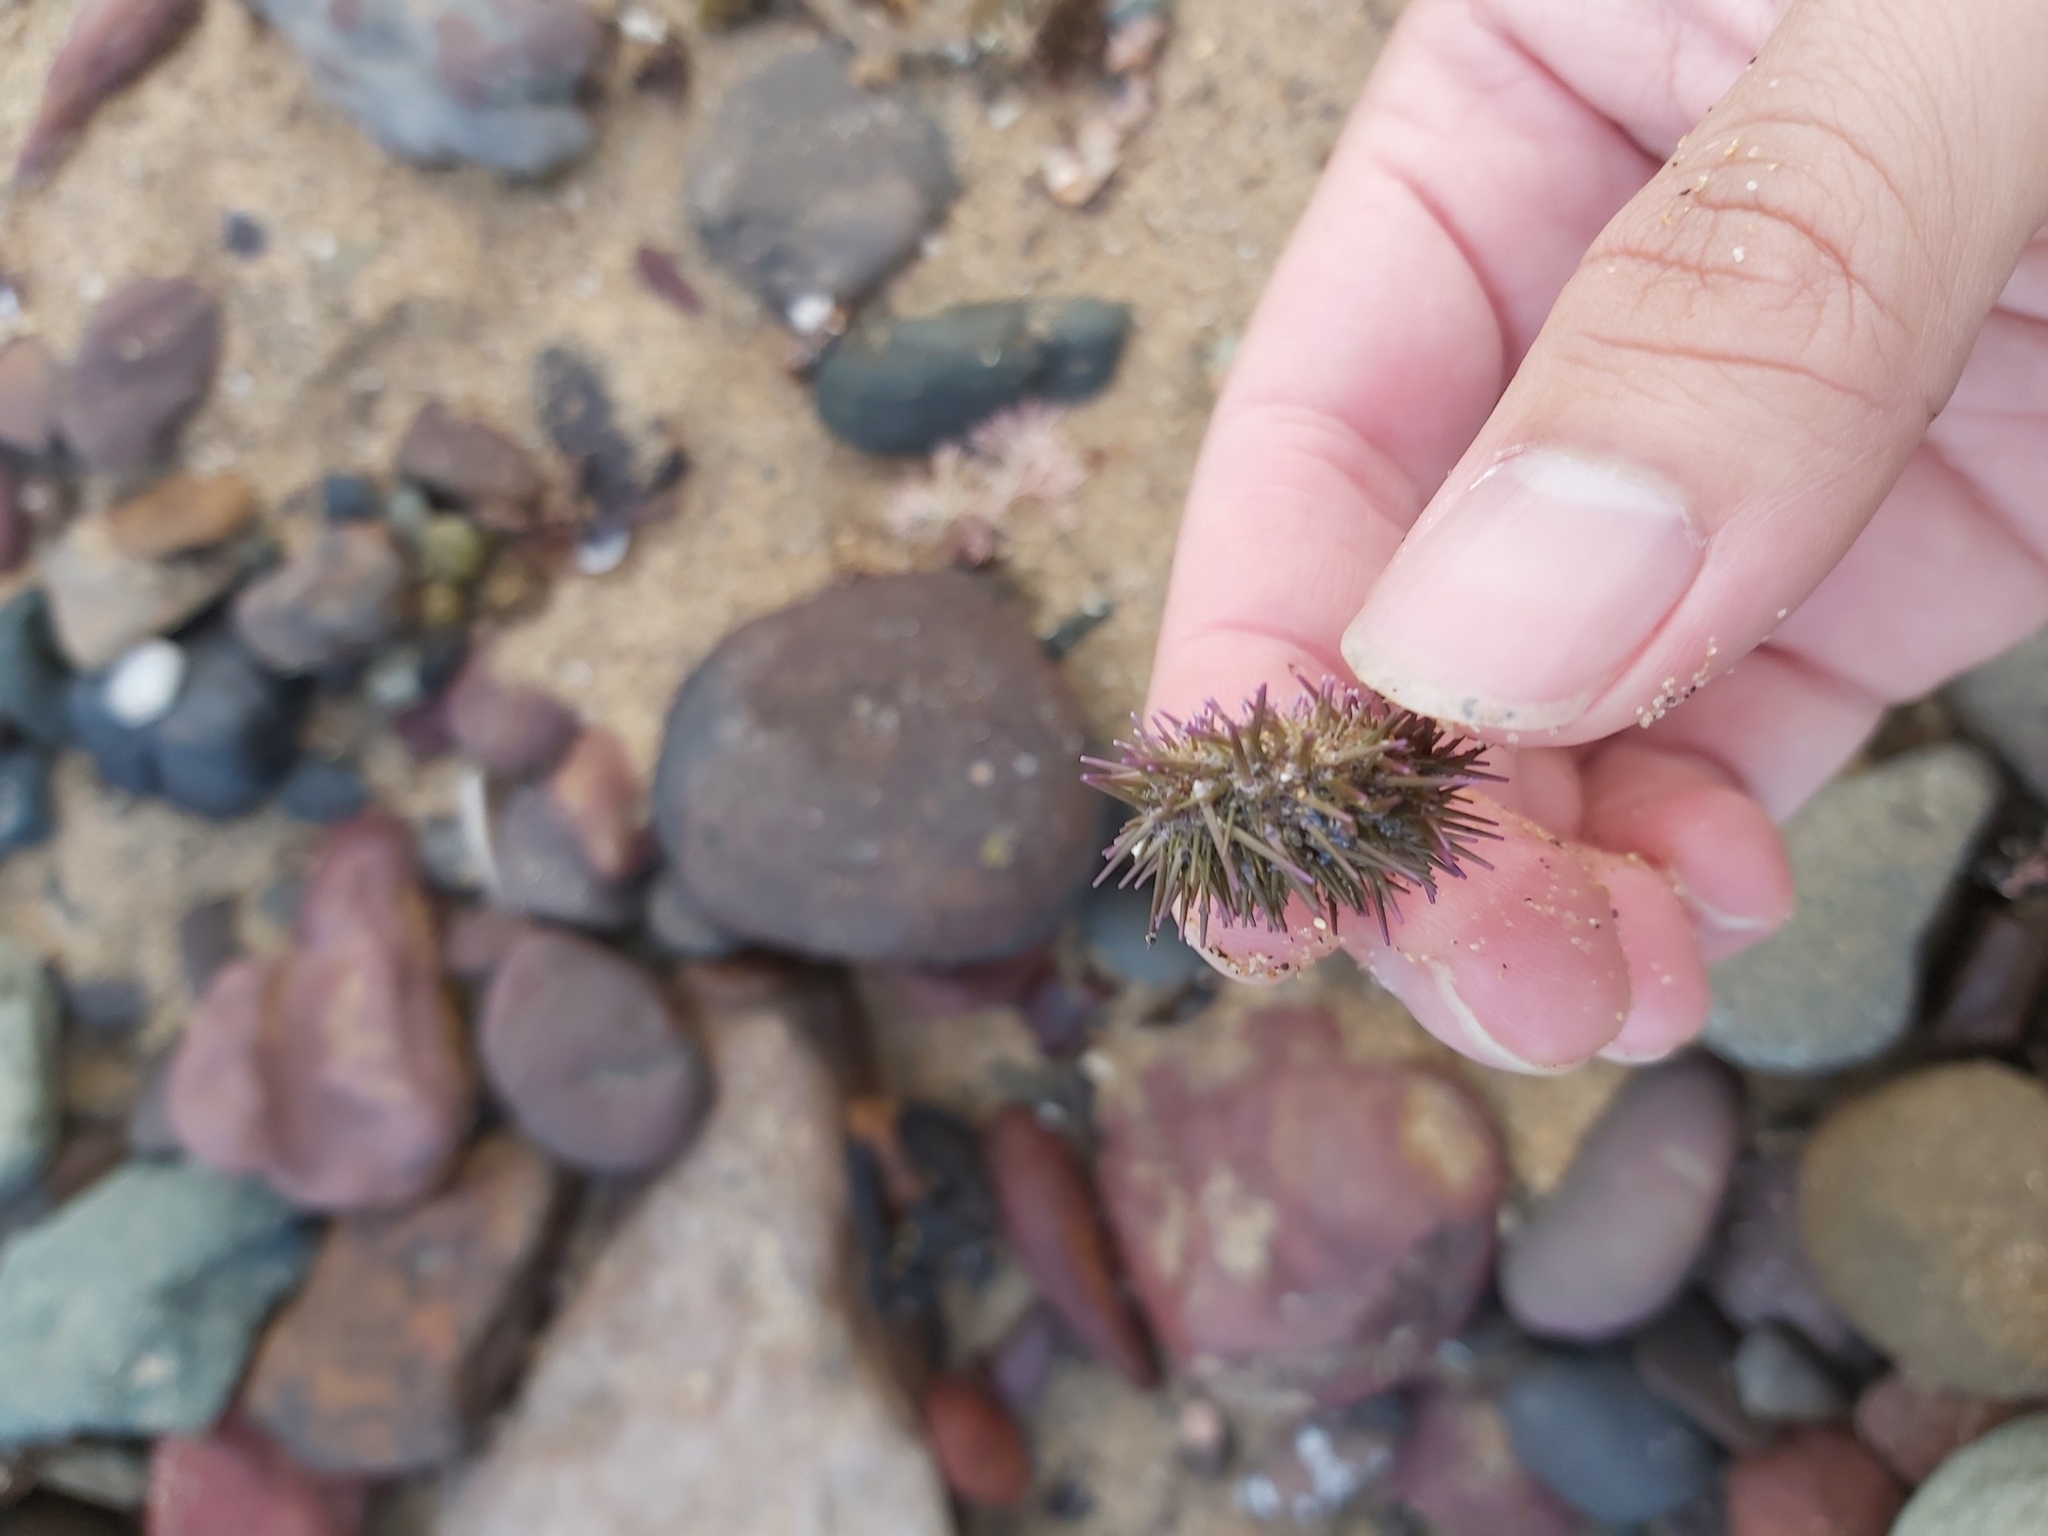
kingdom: Animalia
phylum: Echinodermata
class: Echinoidea
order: Camarodonta
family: Echinometridae
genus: Heliocidaris
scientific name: Heliocidaris erythrogramma
